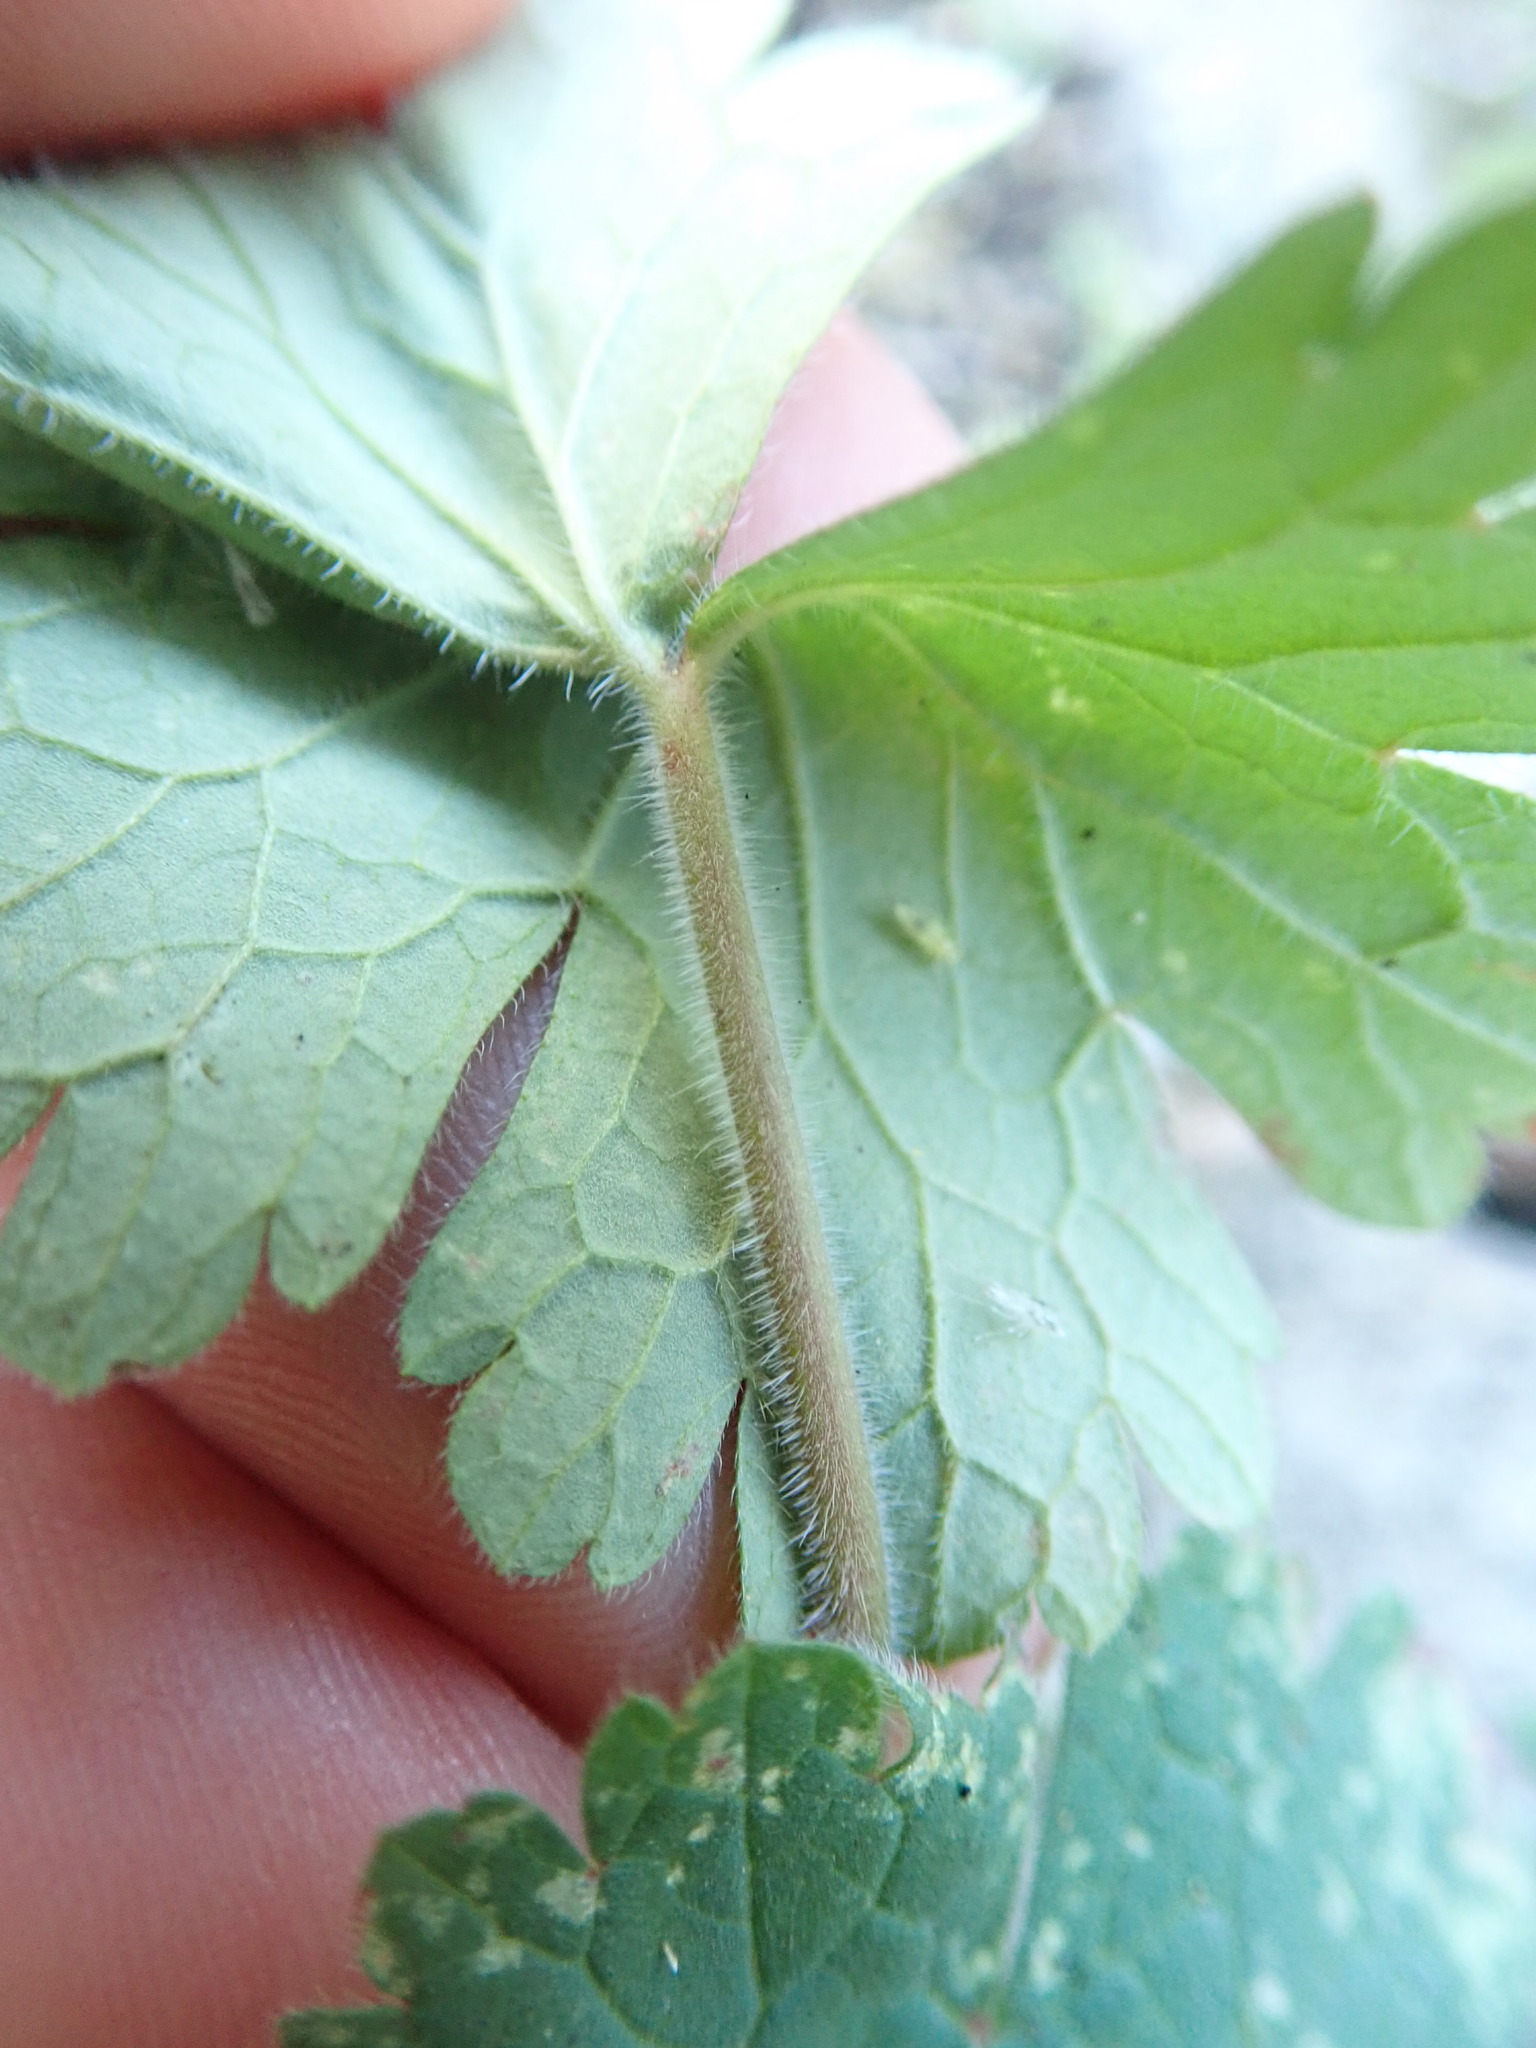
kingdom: Plantae
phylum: Tracheophyta
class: Magnoliopsida
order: Geraniales
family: Geraniaceae
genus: Geranium
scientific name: Geranium rotundifolium
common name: Round-leaved crane's-bill
